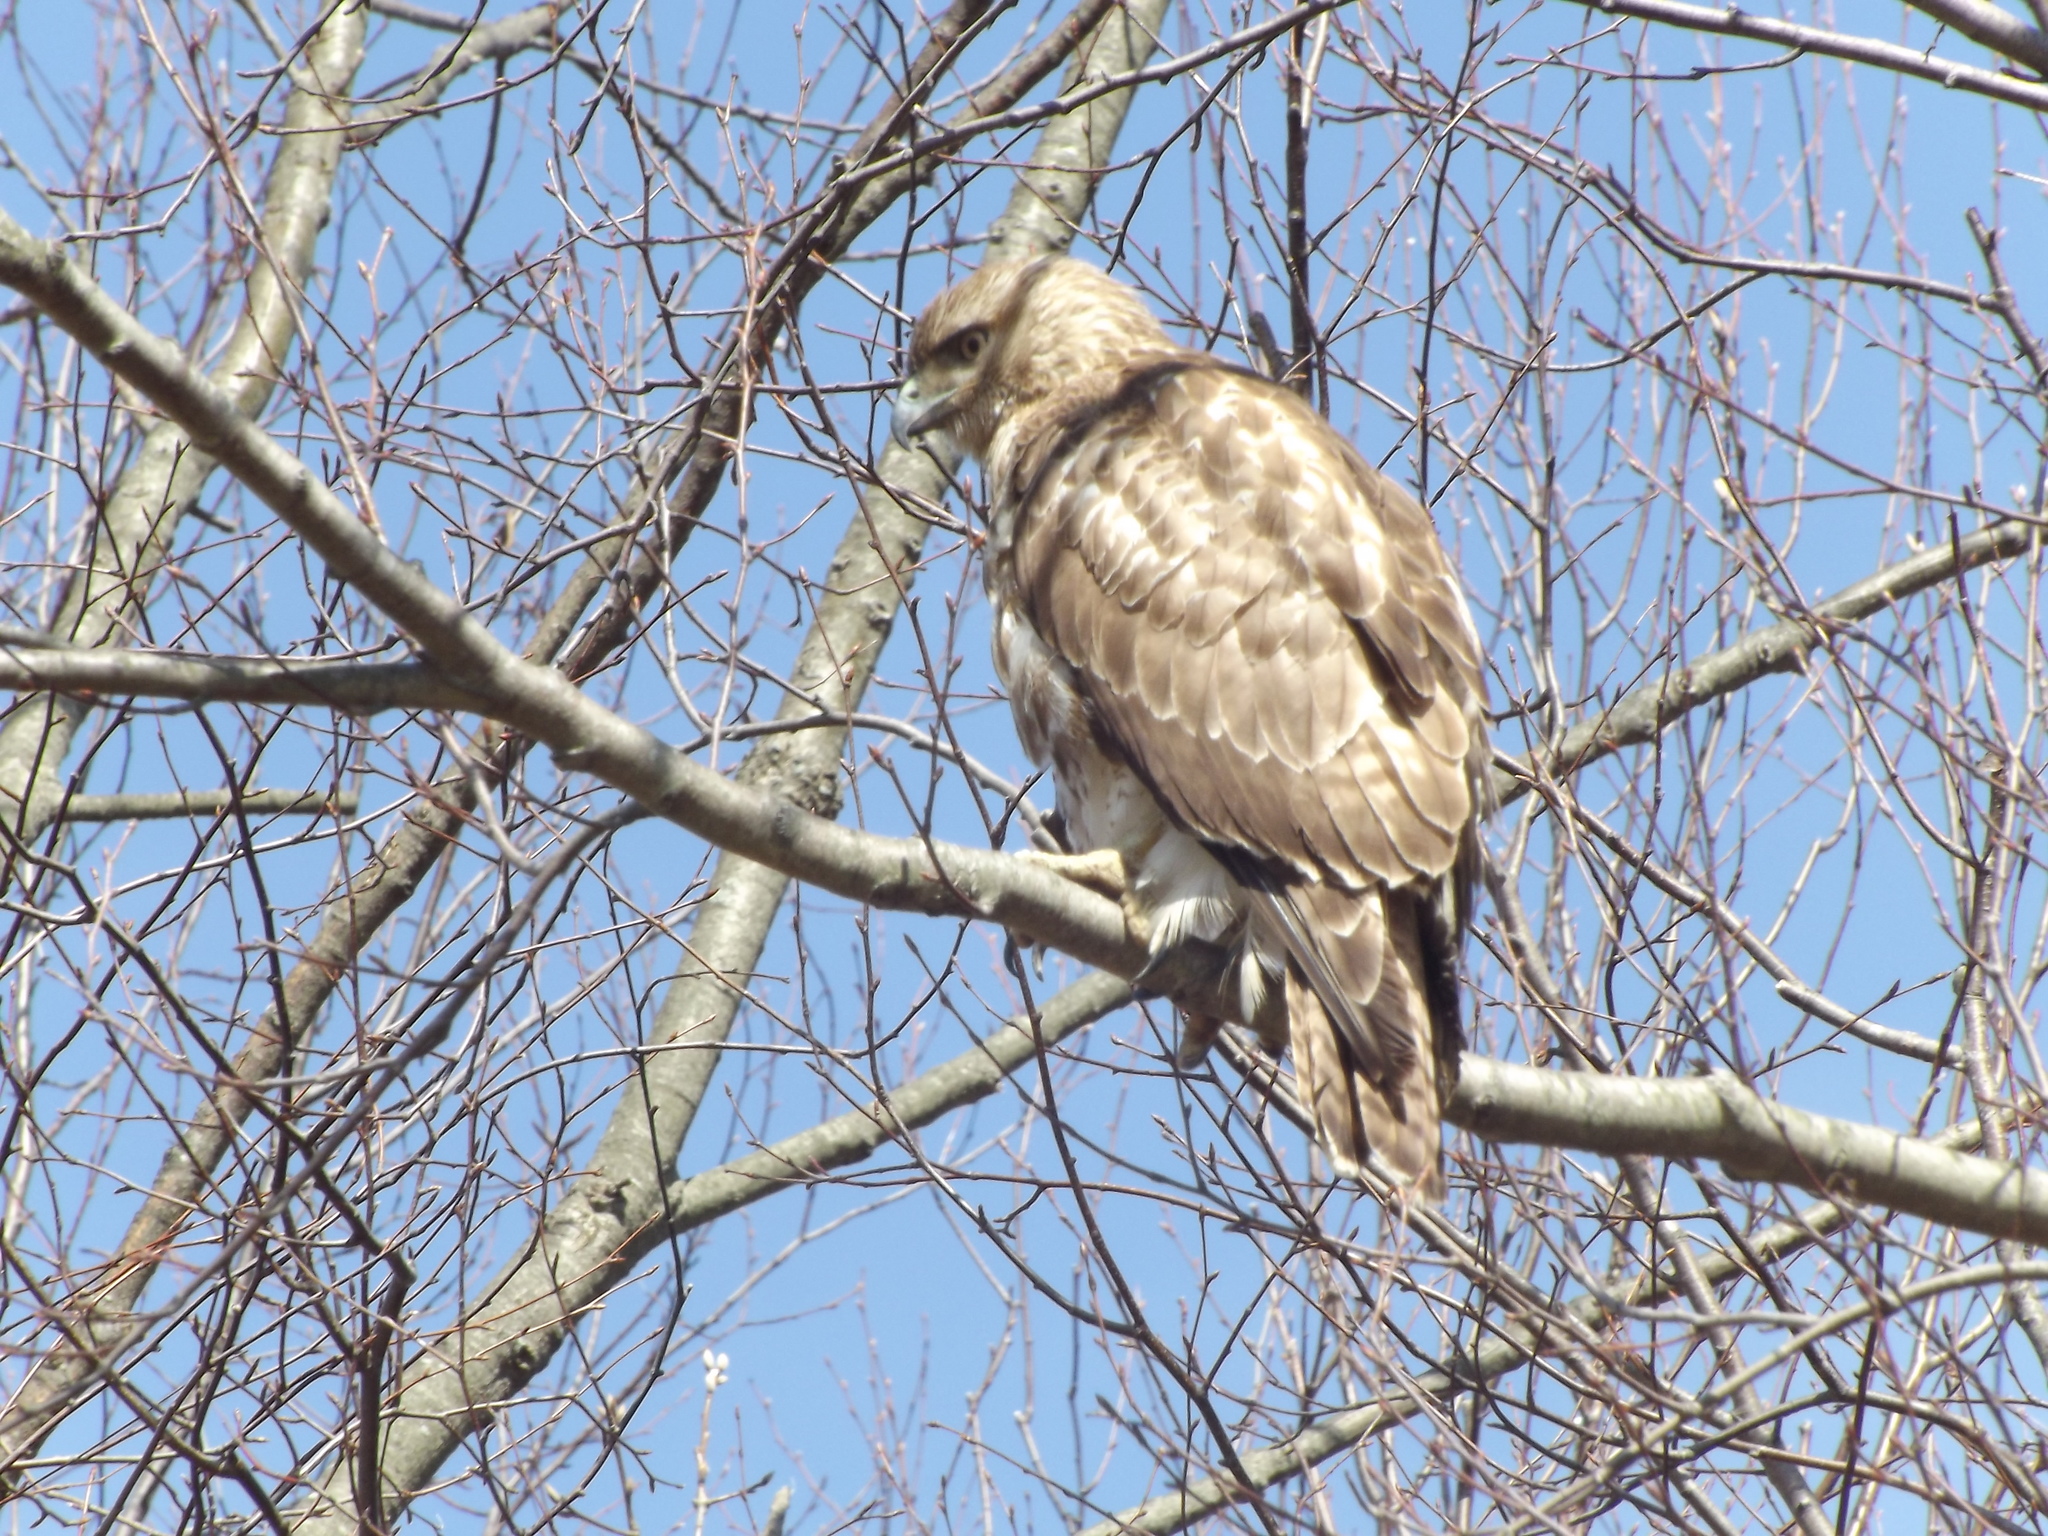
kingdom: Animalia
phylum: Chordata
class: Aves
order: Accipitriformes
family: Accipitridae
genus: Buteo
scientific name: Buteo jamaicensis
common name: Red-tailed hawk
